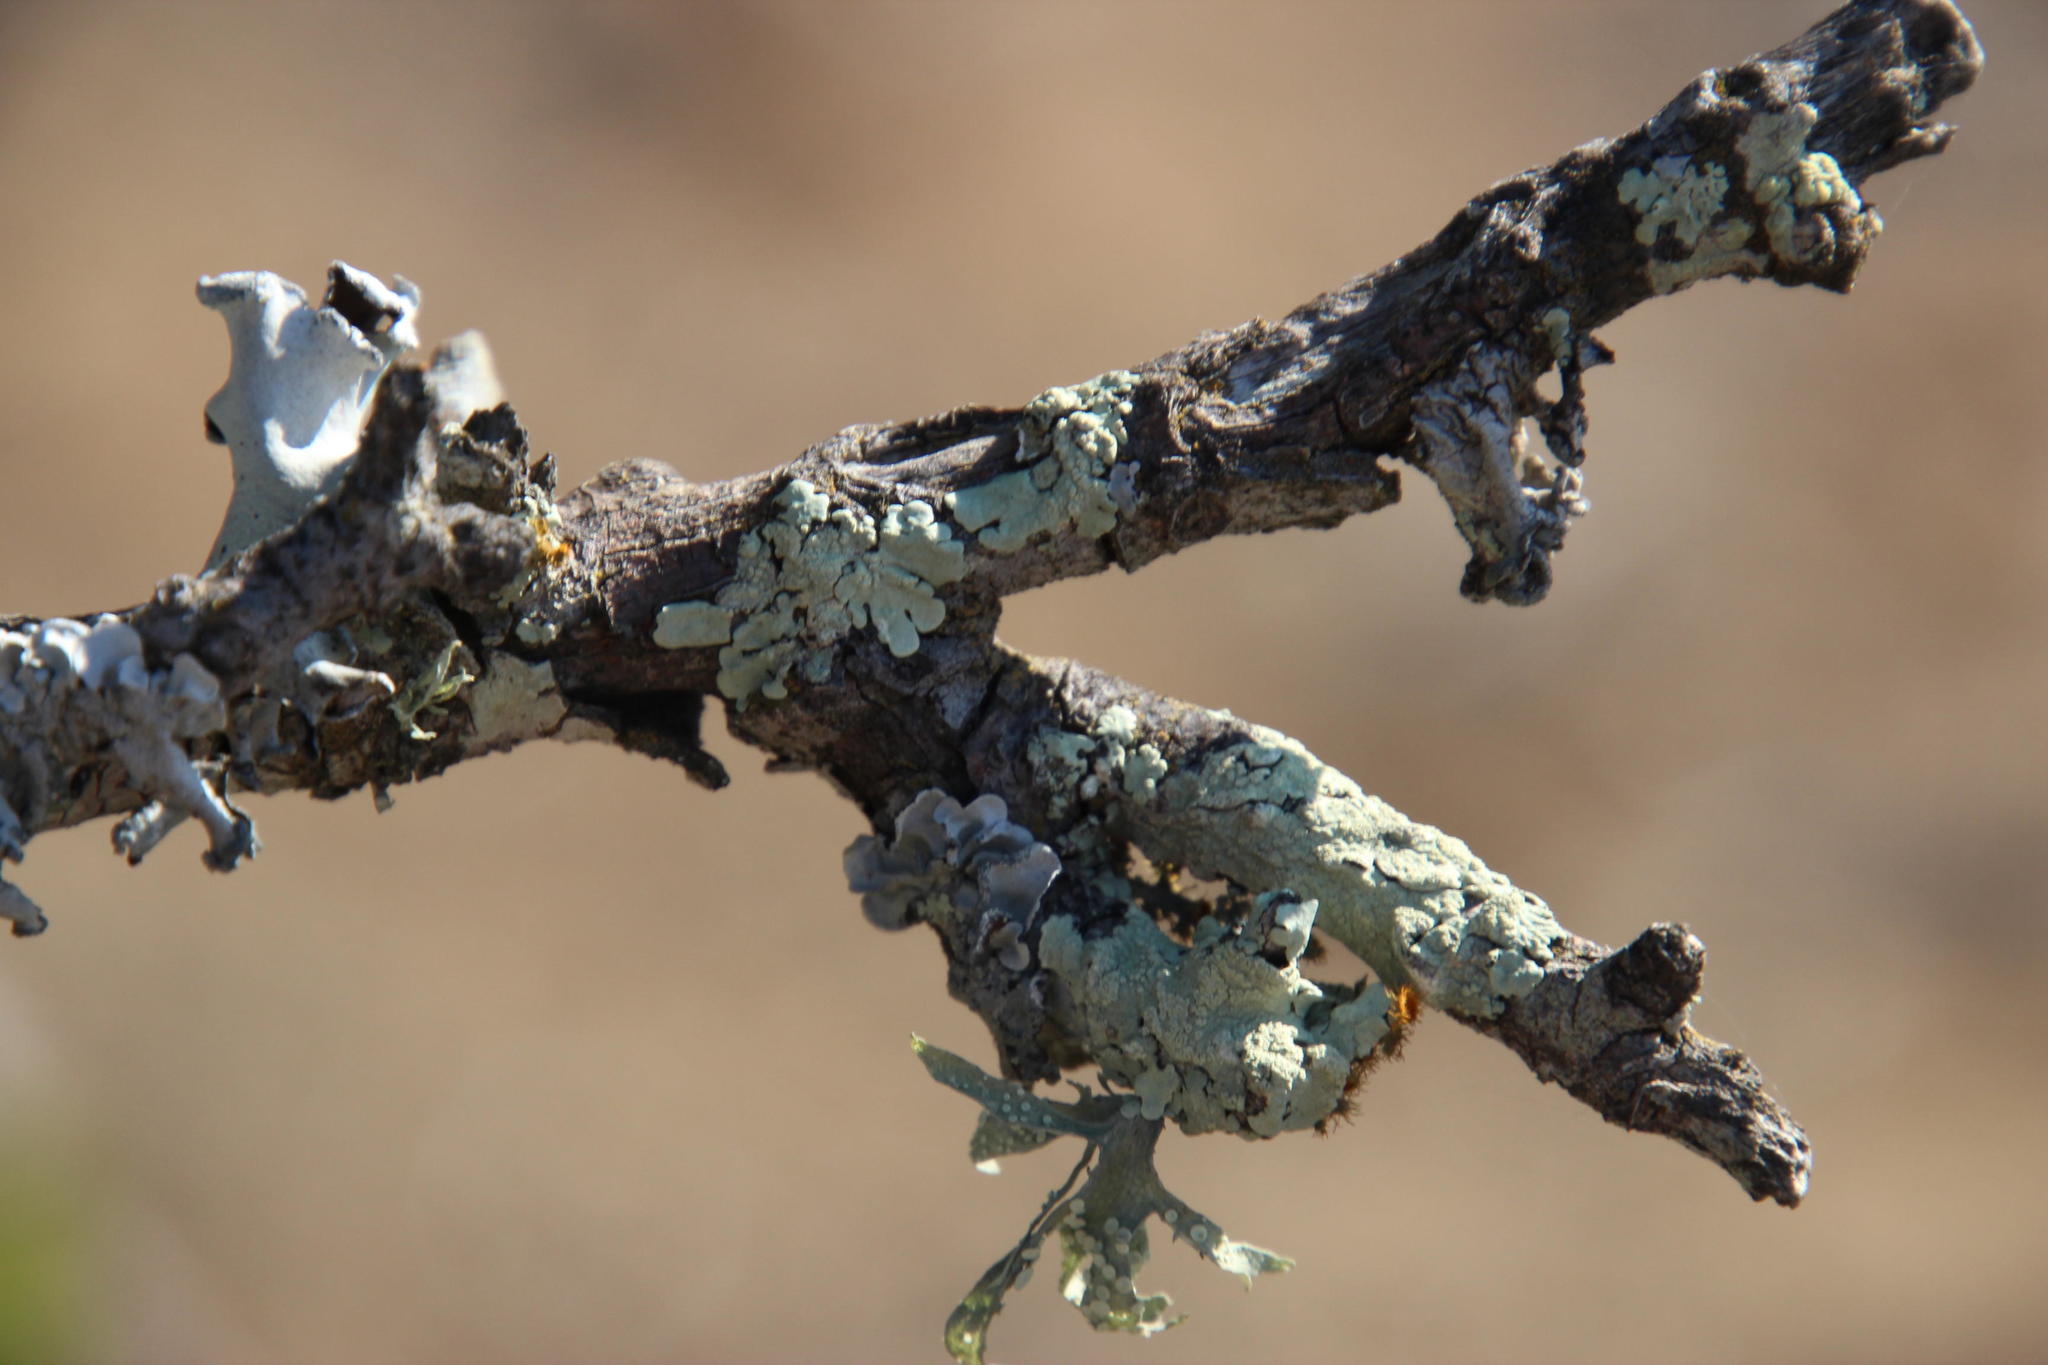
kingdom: Fungi
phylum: Ascomycota
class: Lecanoromycetes
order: Lecanorales
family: Parmeliaceae
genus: Flavoparmelia
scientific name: Flavoparmelia soredians
